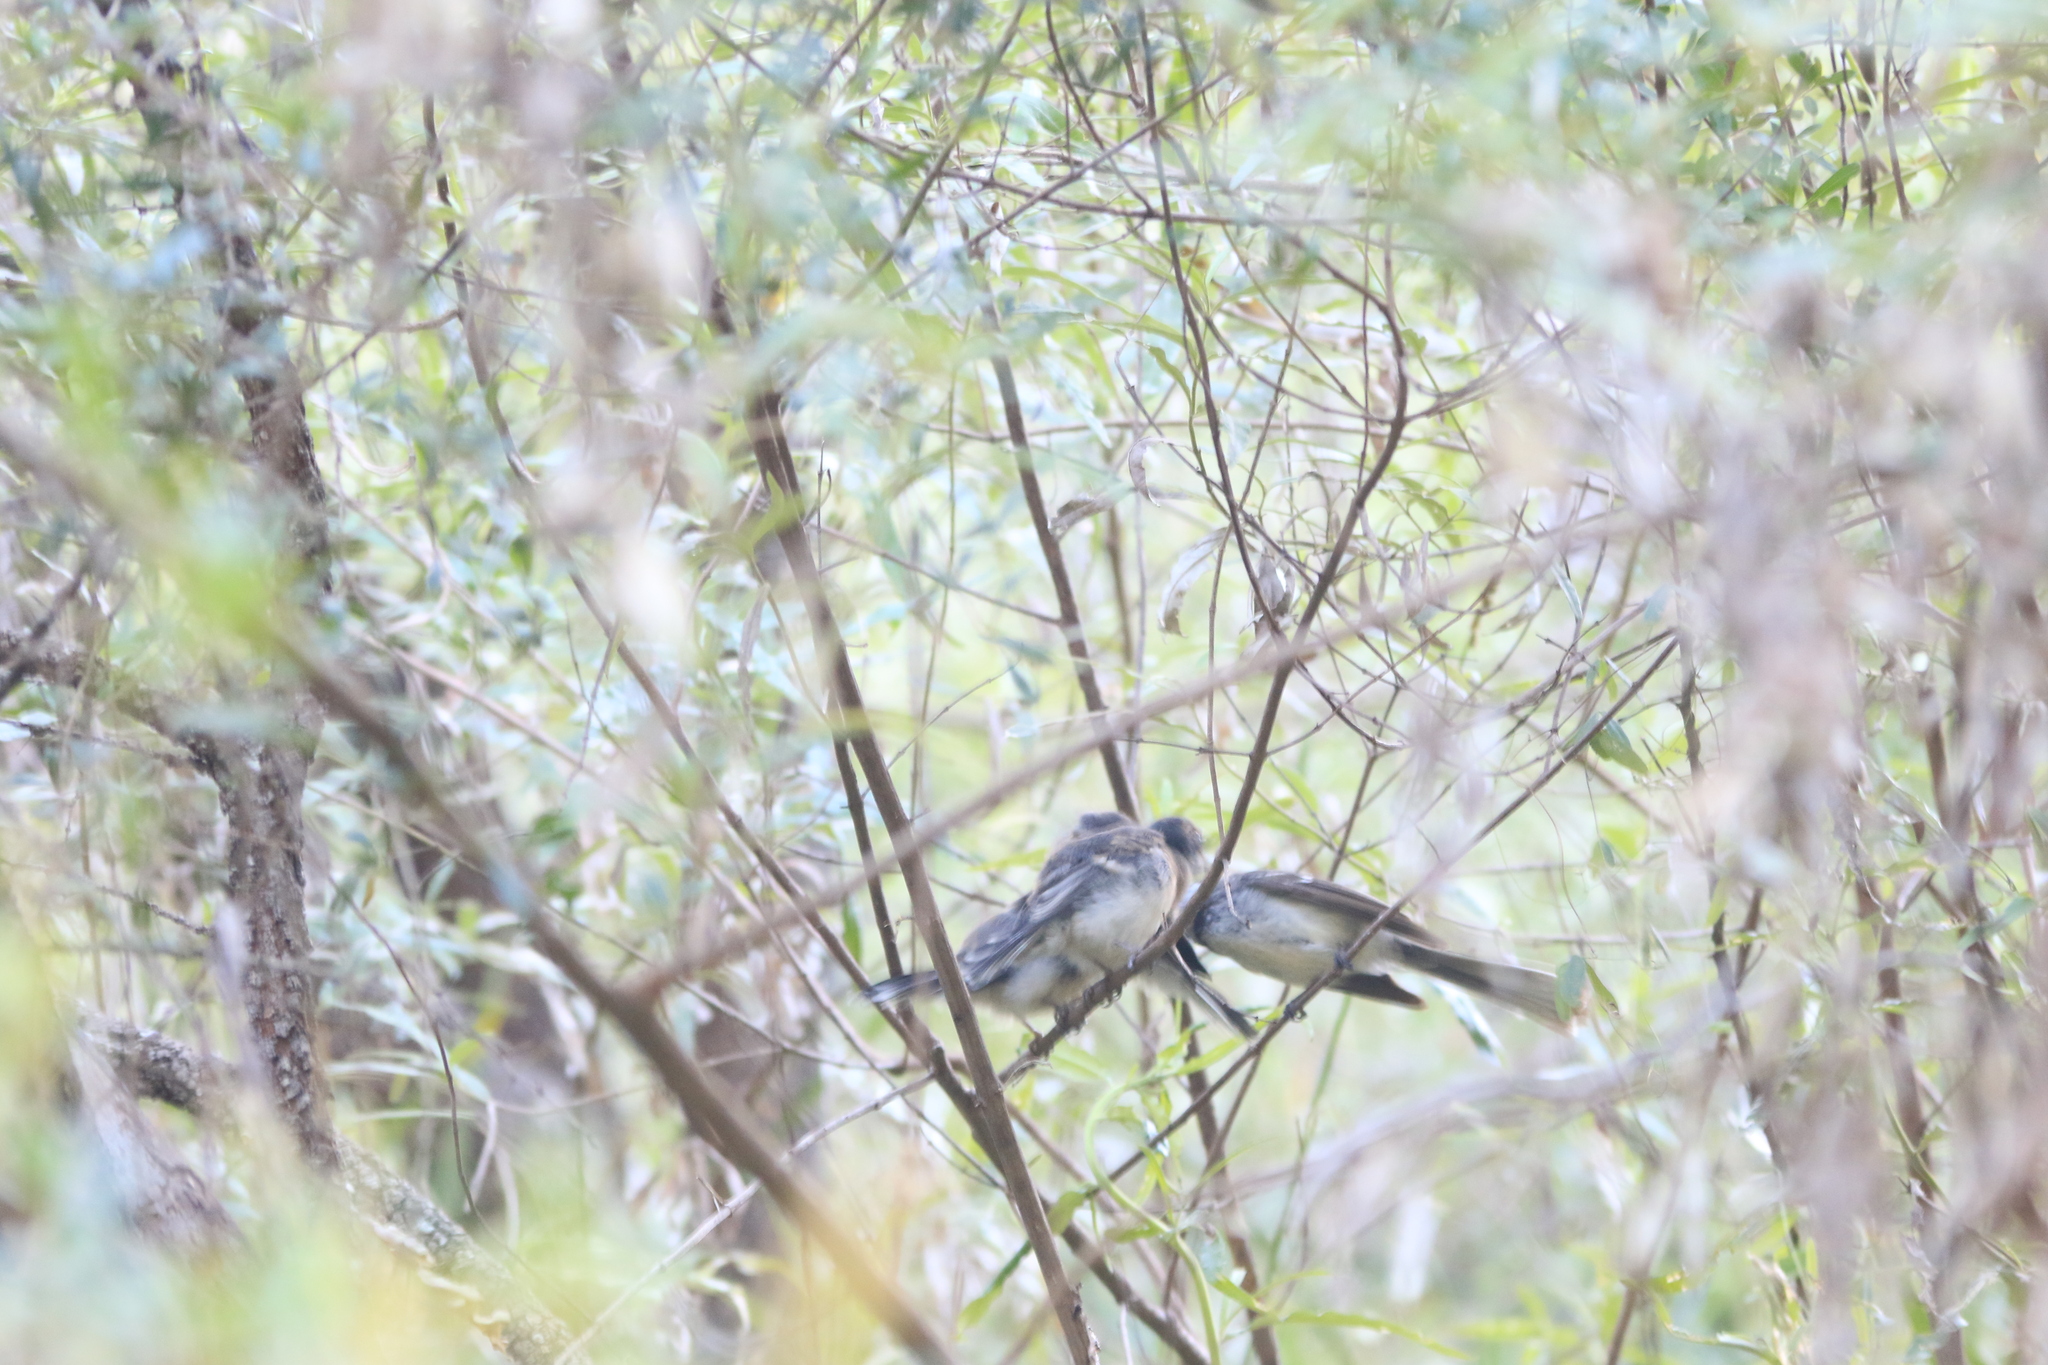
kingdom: Animalia
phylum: Chordata
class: Aves
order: Passeriformes
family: Rhipiduridae
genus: Rhipidura
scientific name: Rhipidura albiscapa
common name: Grey fantail
